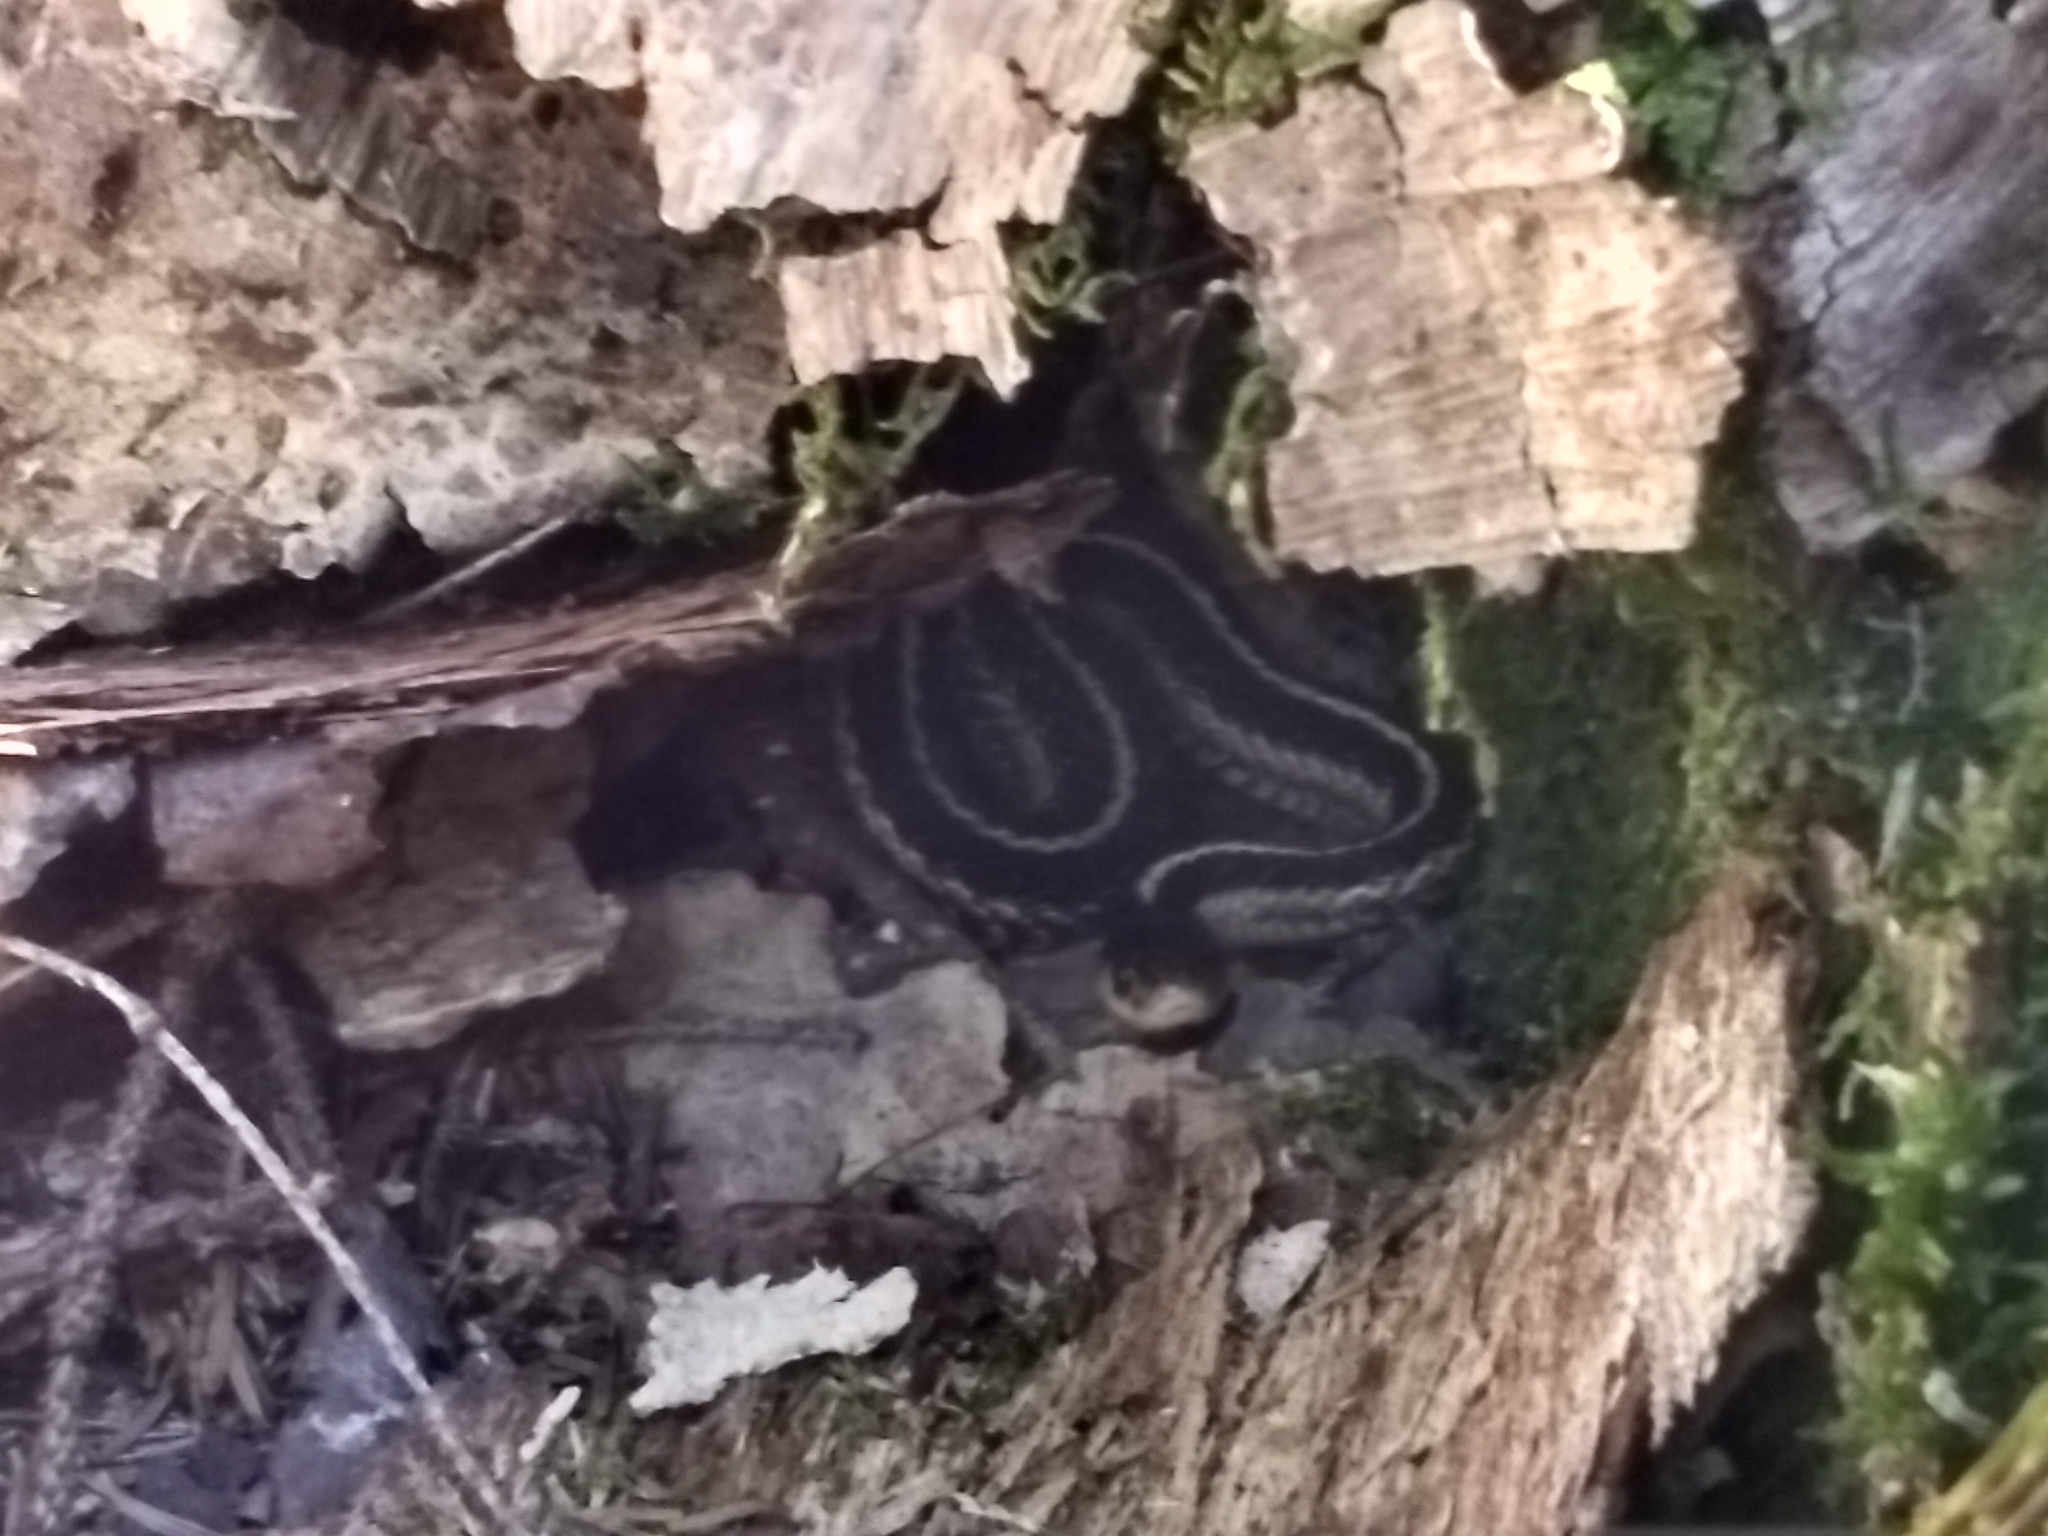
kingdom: Animalia
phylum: Chordata
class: Squamata
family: Colubridae
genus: Thamnophis
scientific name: Thamnophis sirtalis
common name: Common garter snake
